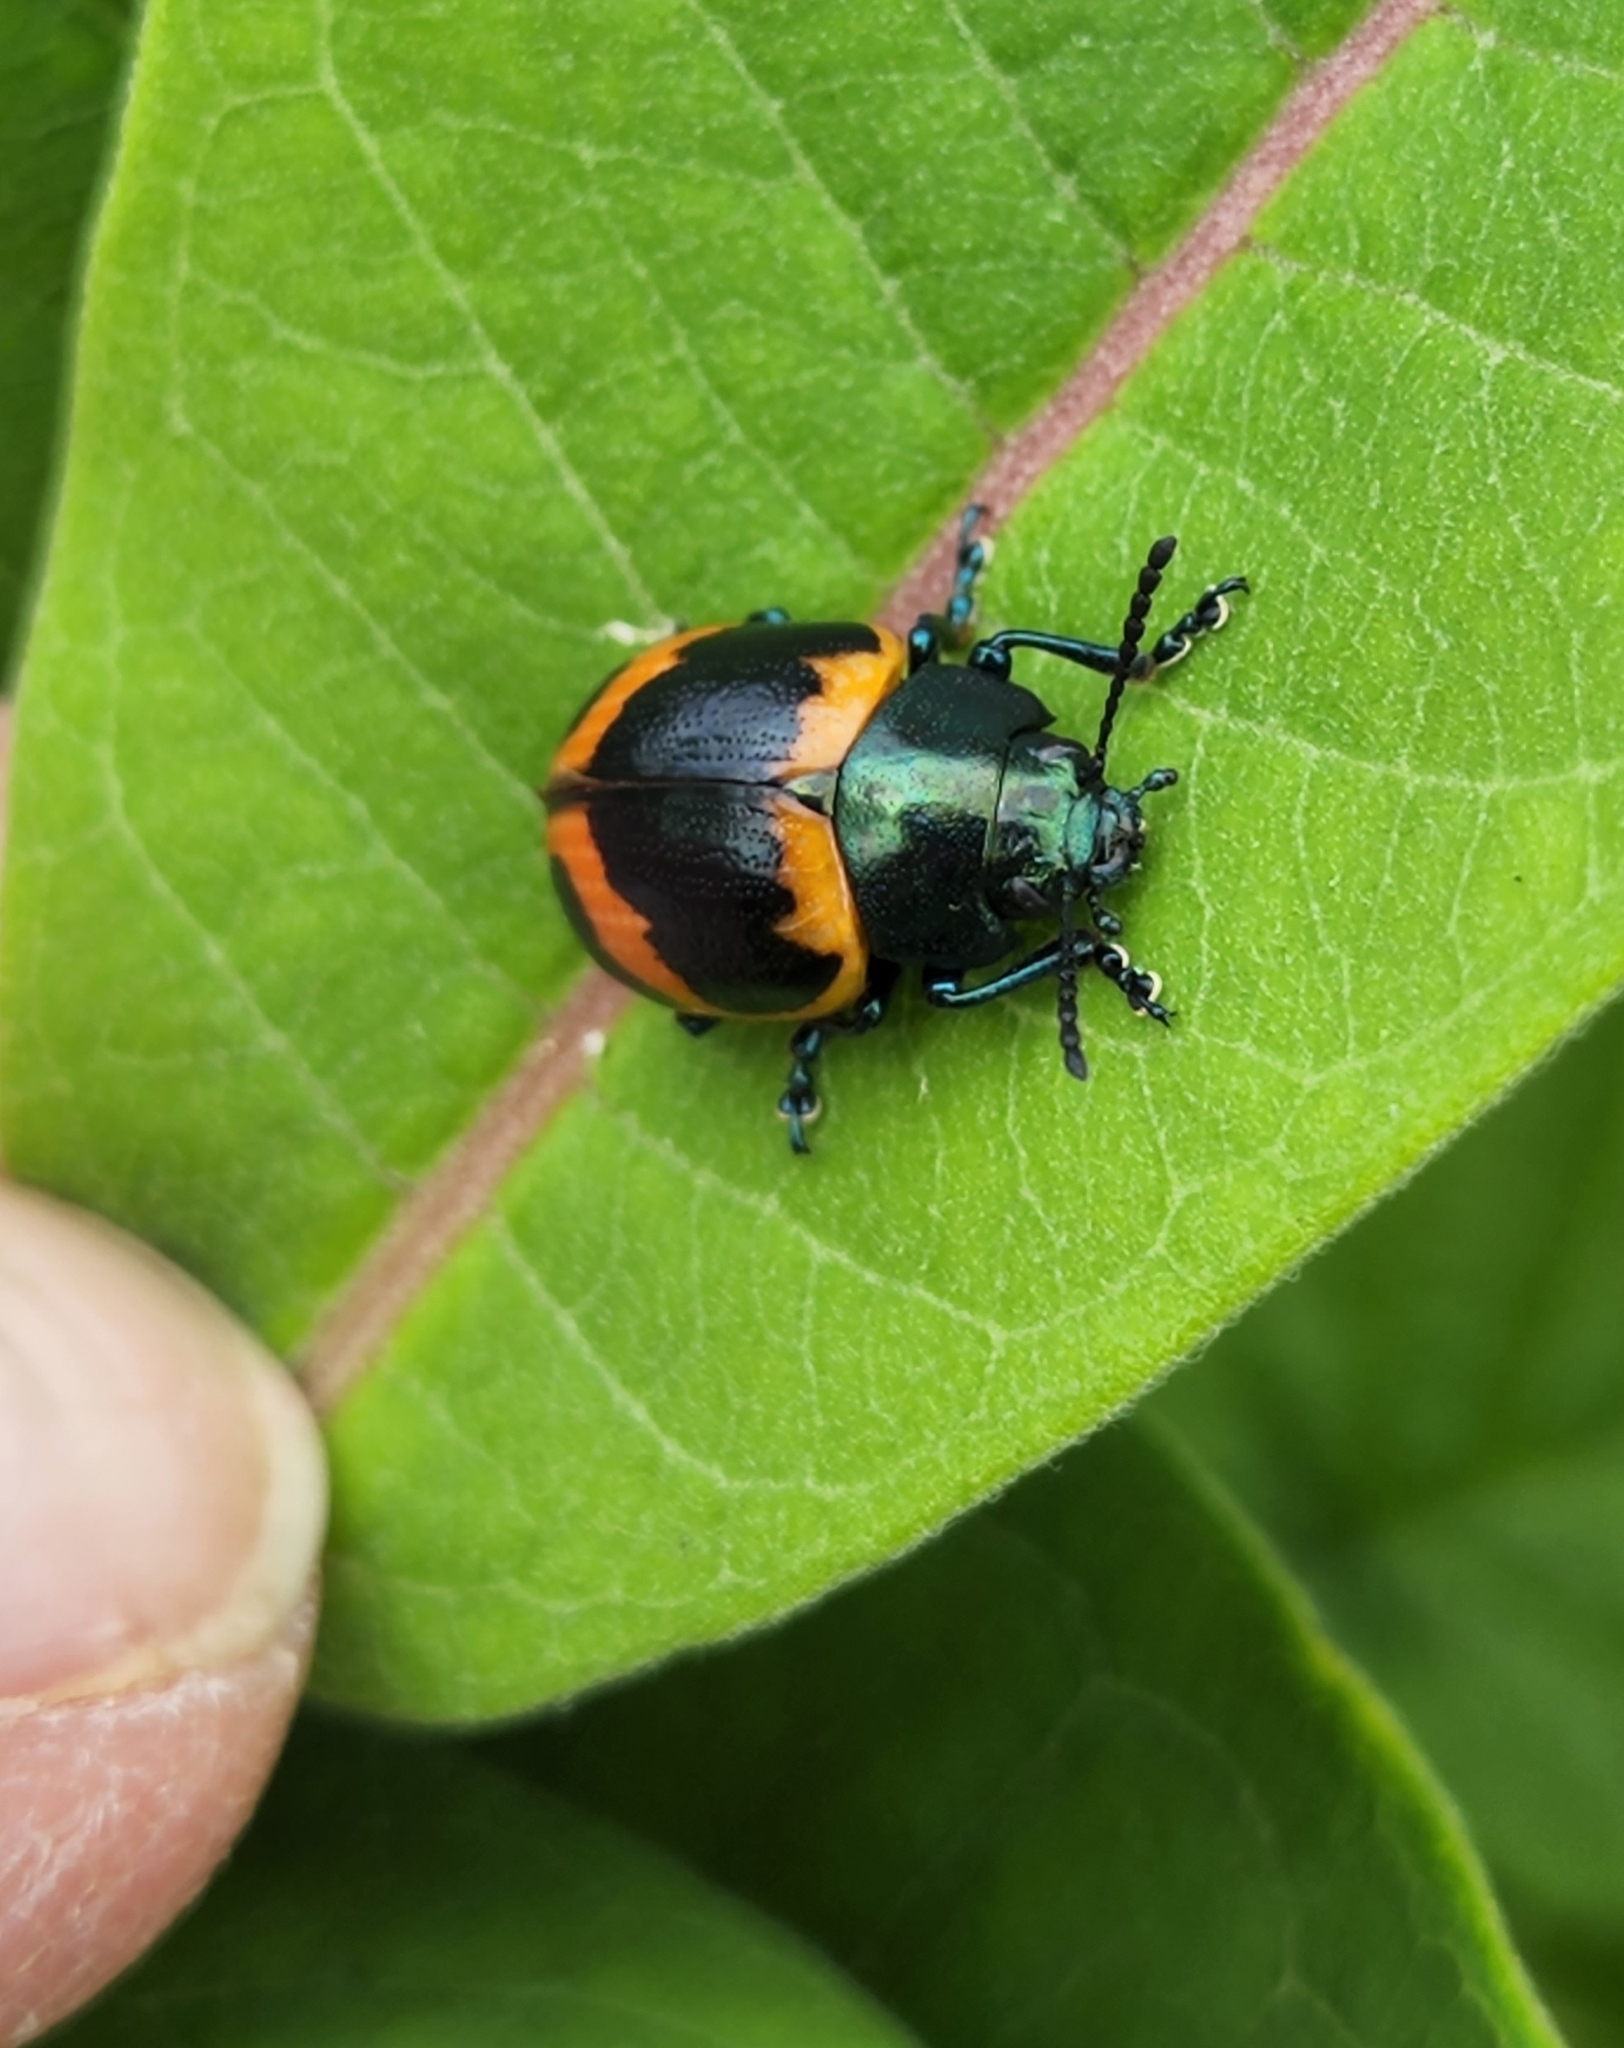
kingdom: Animalia
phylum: Arthropoda
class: Insecta
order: Coleoptera
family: Chrysomelidae
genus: Labidomera
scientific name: Labidomera clivicollis
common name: Swamp milkweed leaf beetle
